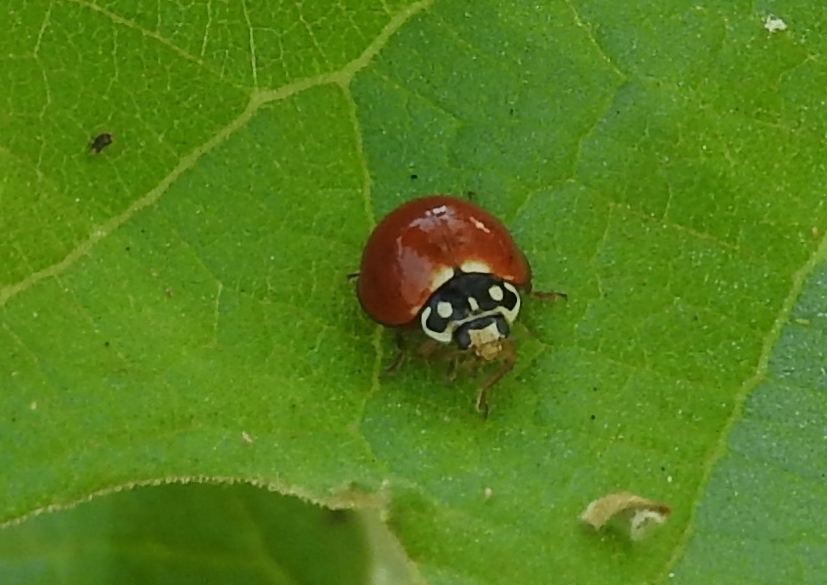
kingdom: Animalia
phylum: Arthropoda
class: Insecta
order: Coleoptera
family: Coccinellidae
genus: Cycloneda
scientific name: Cycloneda sanguinea
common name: Ladybird beetle
